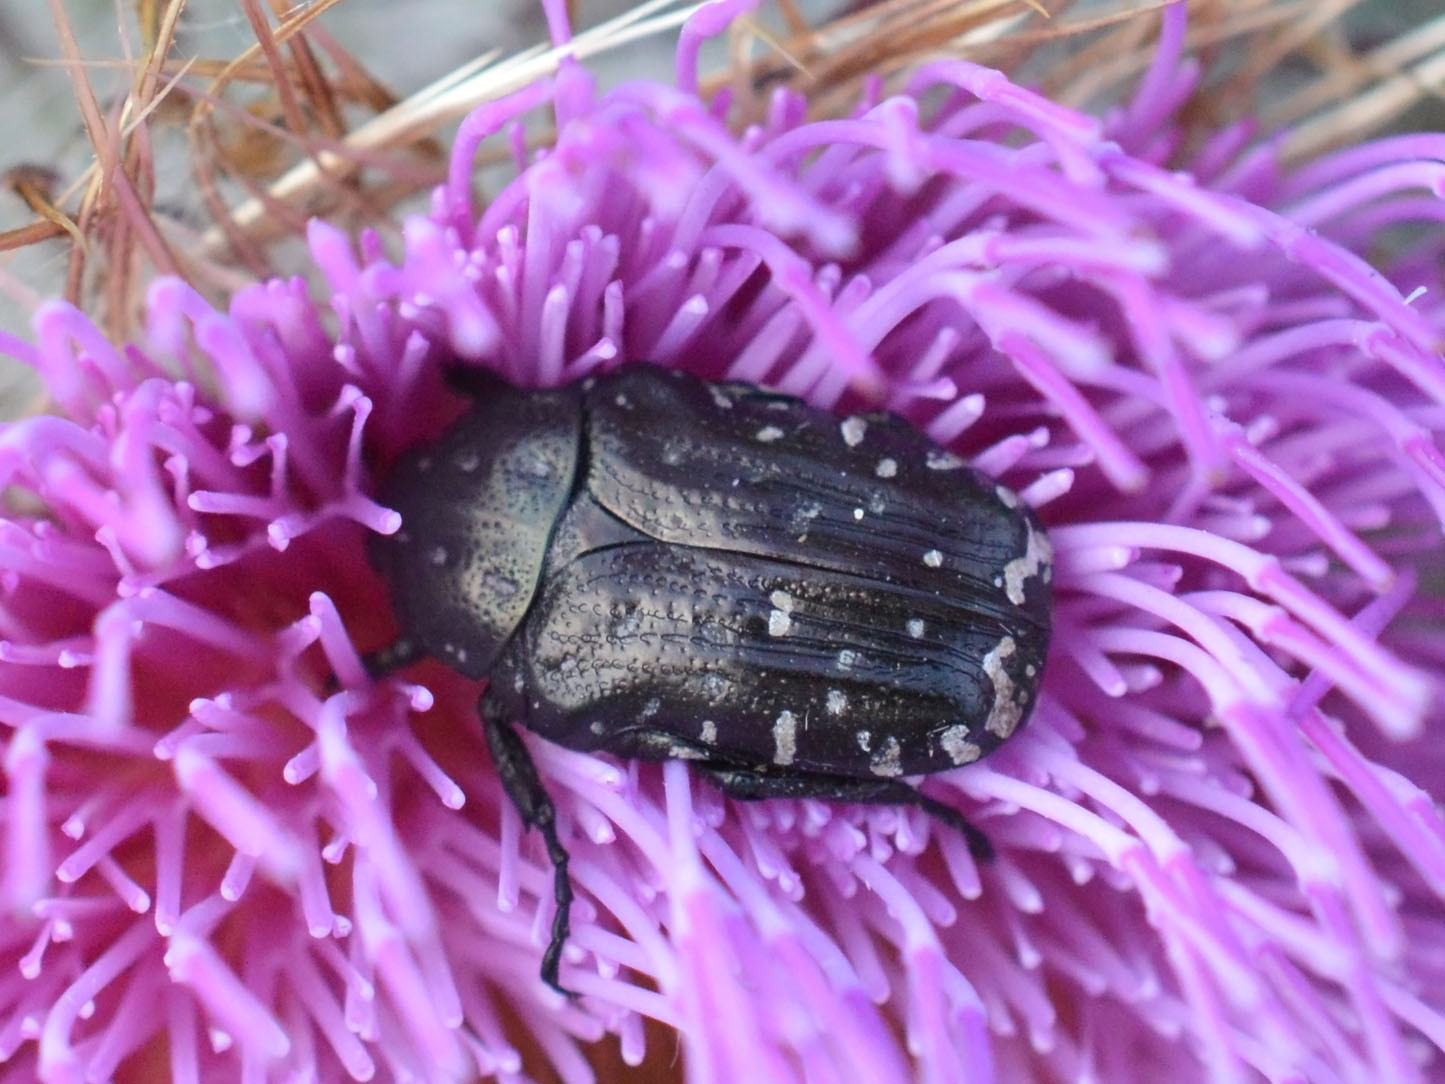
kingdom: Animalia
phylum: Arthropoda
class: Insecta
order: Coleoptera
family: Scarabaeidae
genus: Oxythyrea
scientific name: Oxythyrea funesta
